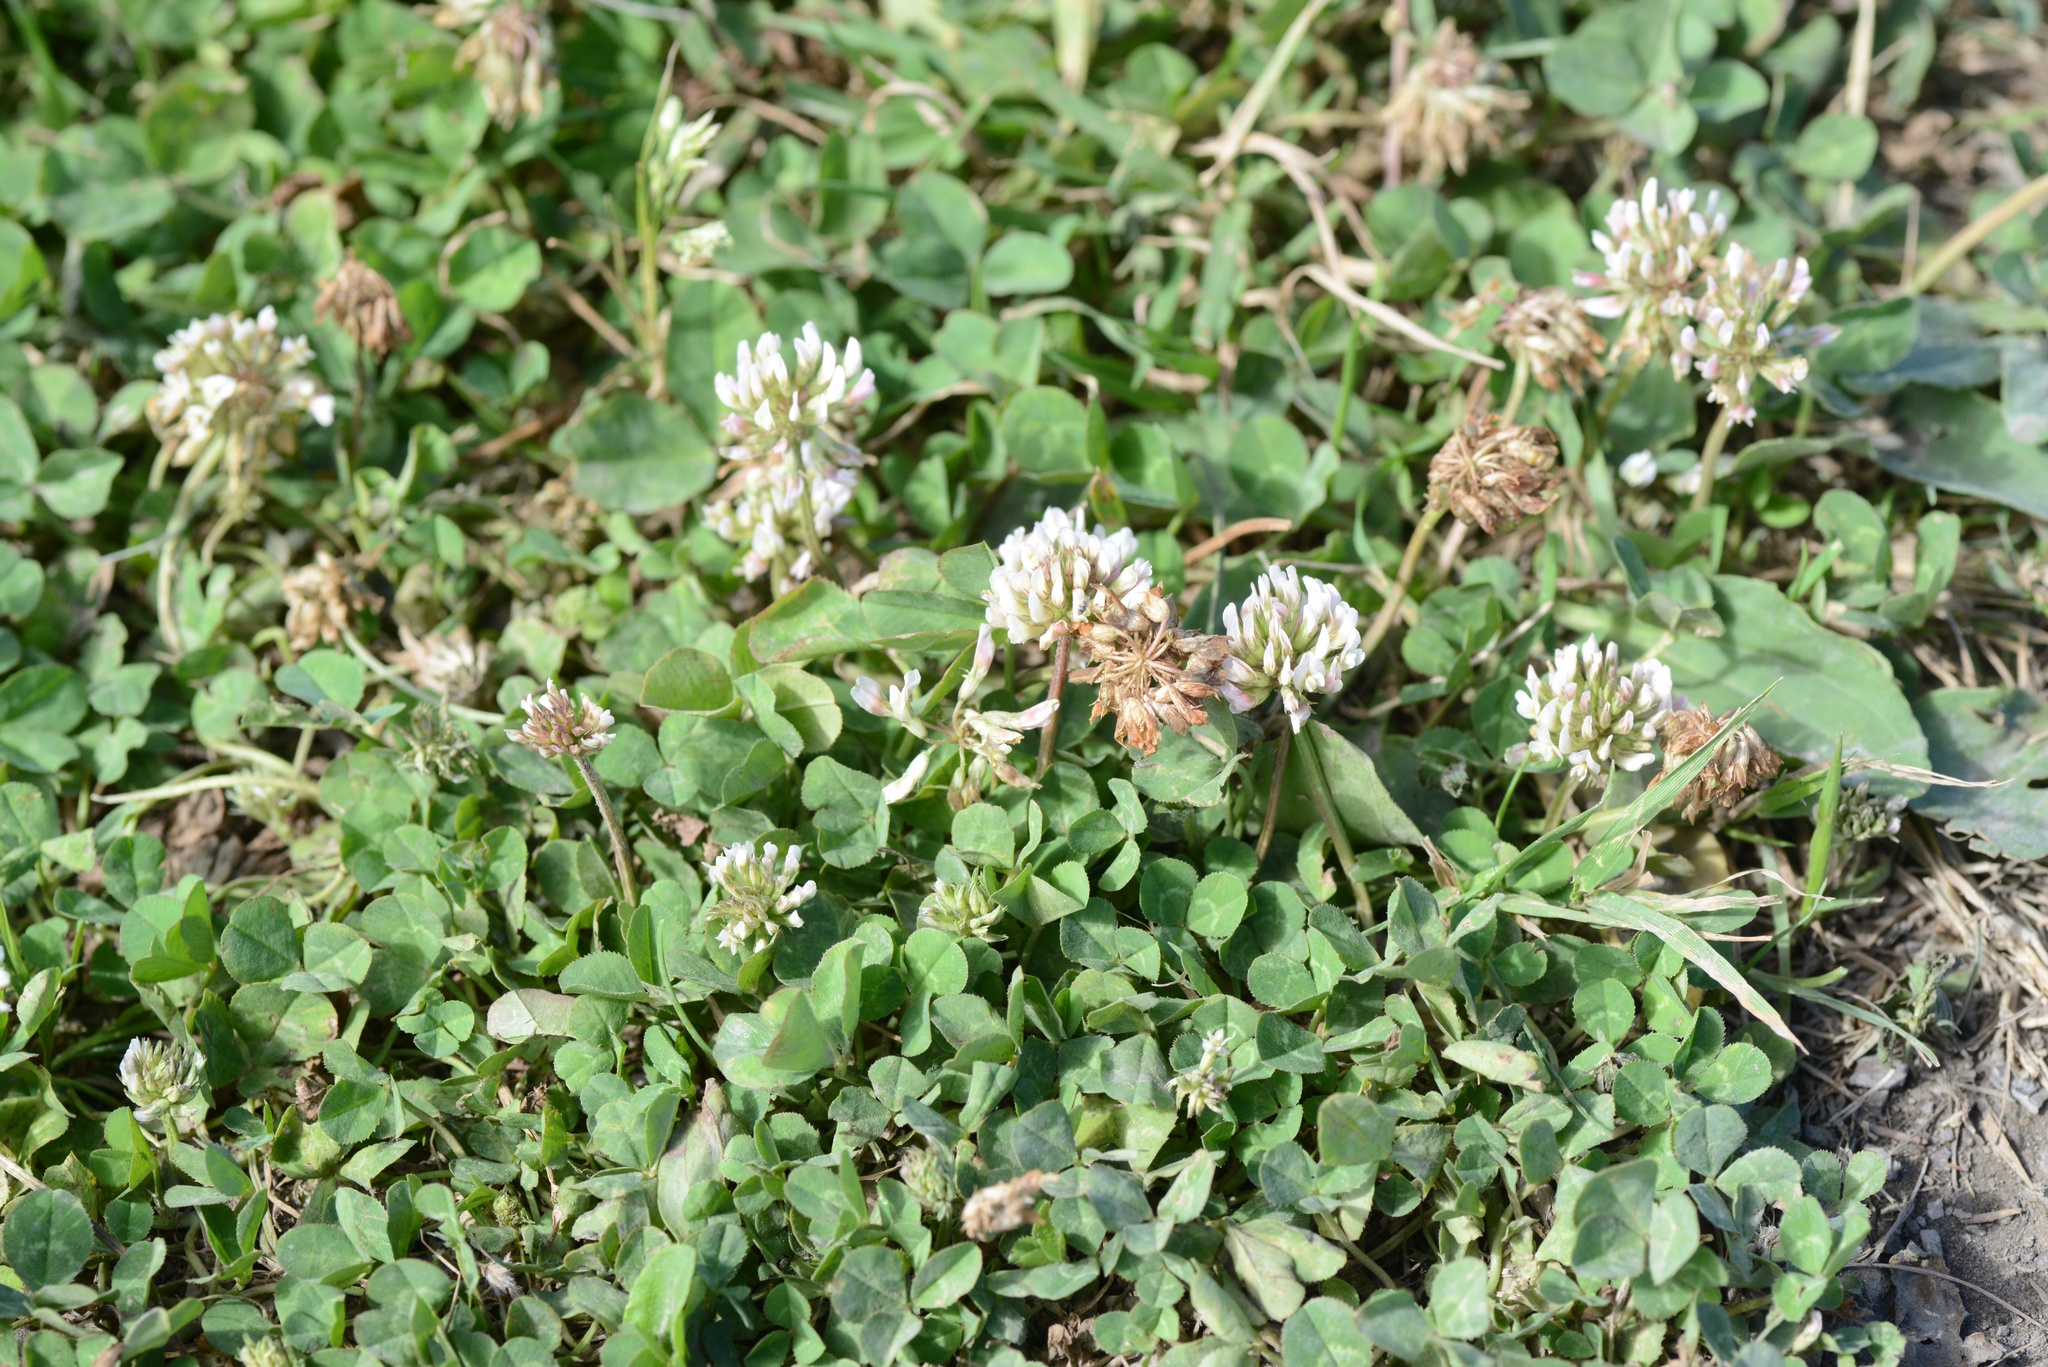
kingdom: Plantae
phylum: Tracheophyta
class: Magnoliopsida
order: Fabales
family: Fabaceae
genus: Trifolium
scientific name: Trifolium repens
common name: White clover
